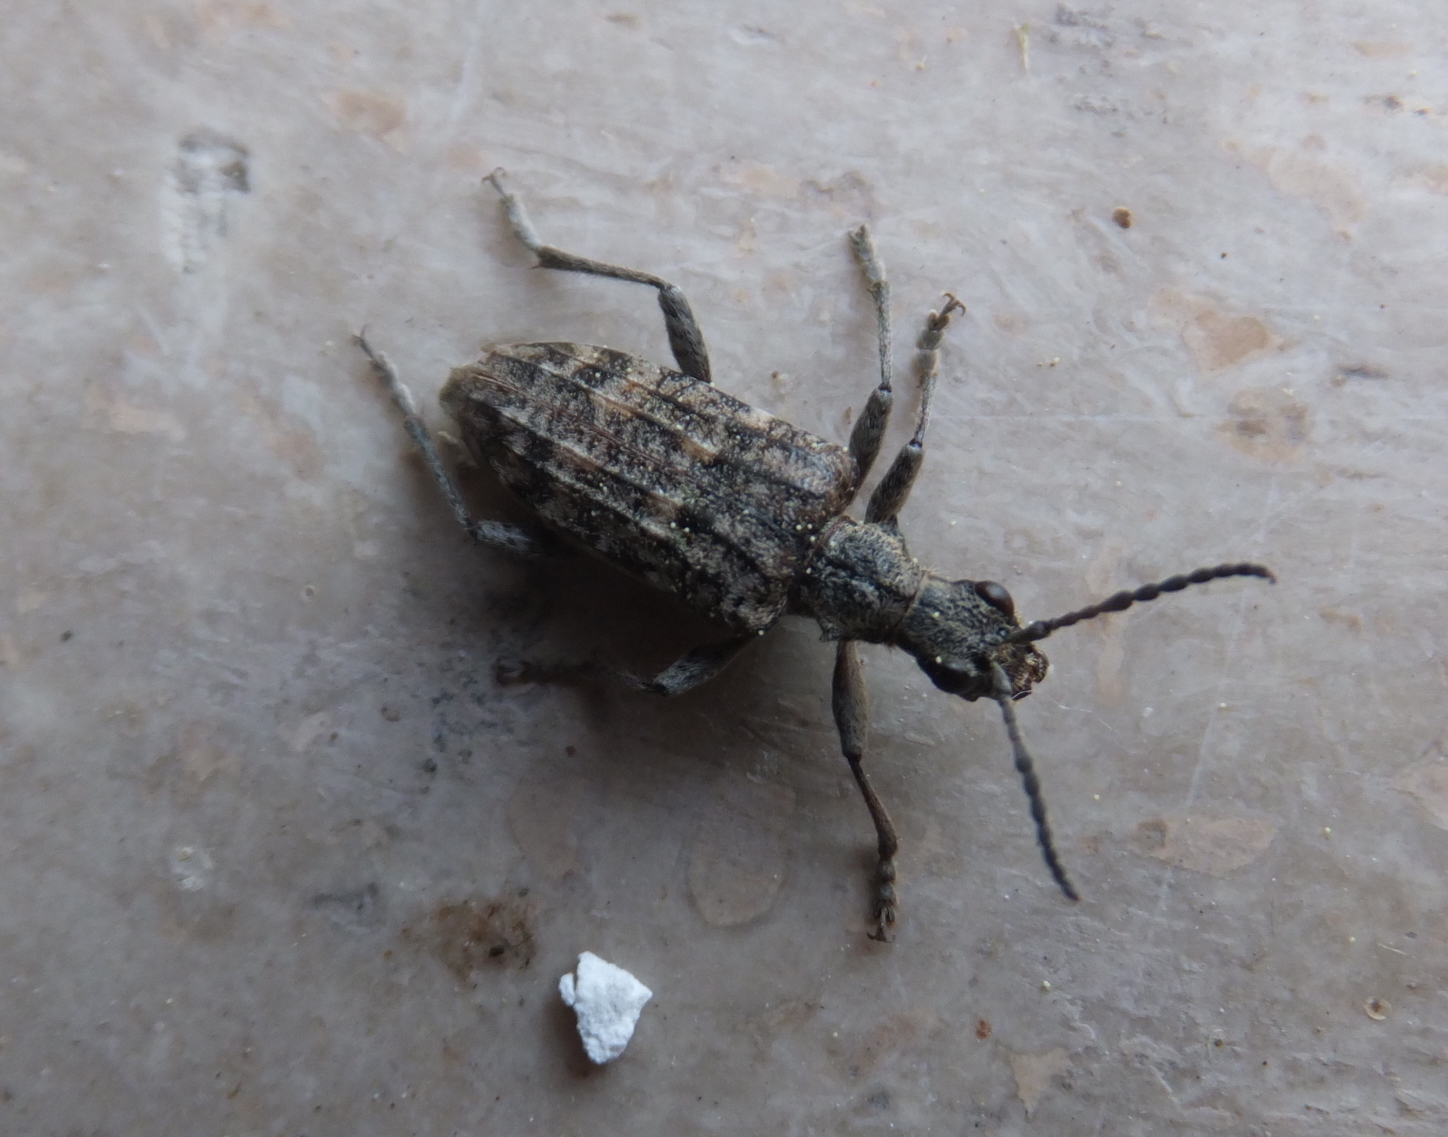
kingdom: Animalia
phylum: Arthropoda
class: Insecta
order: Coleoptera
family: Cerambycidae
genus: Rhagium
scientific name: Rhagium inquisitor
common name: Ribbed pine borer
